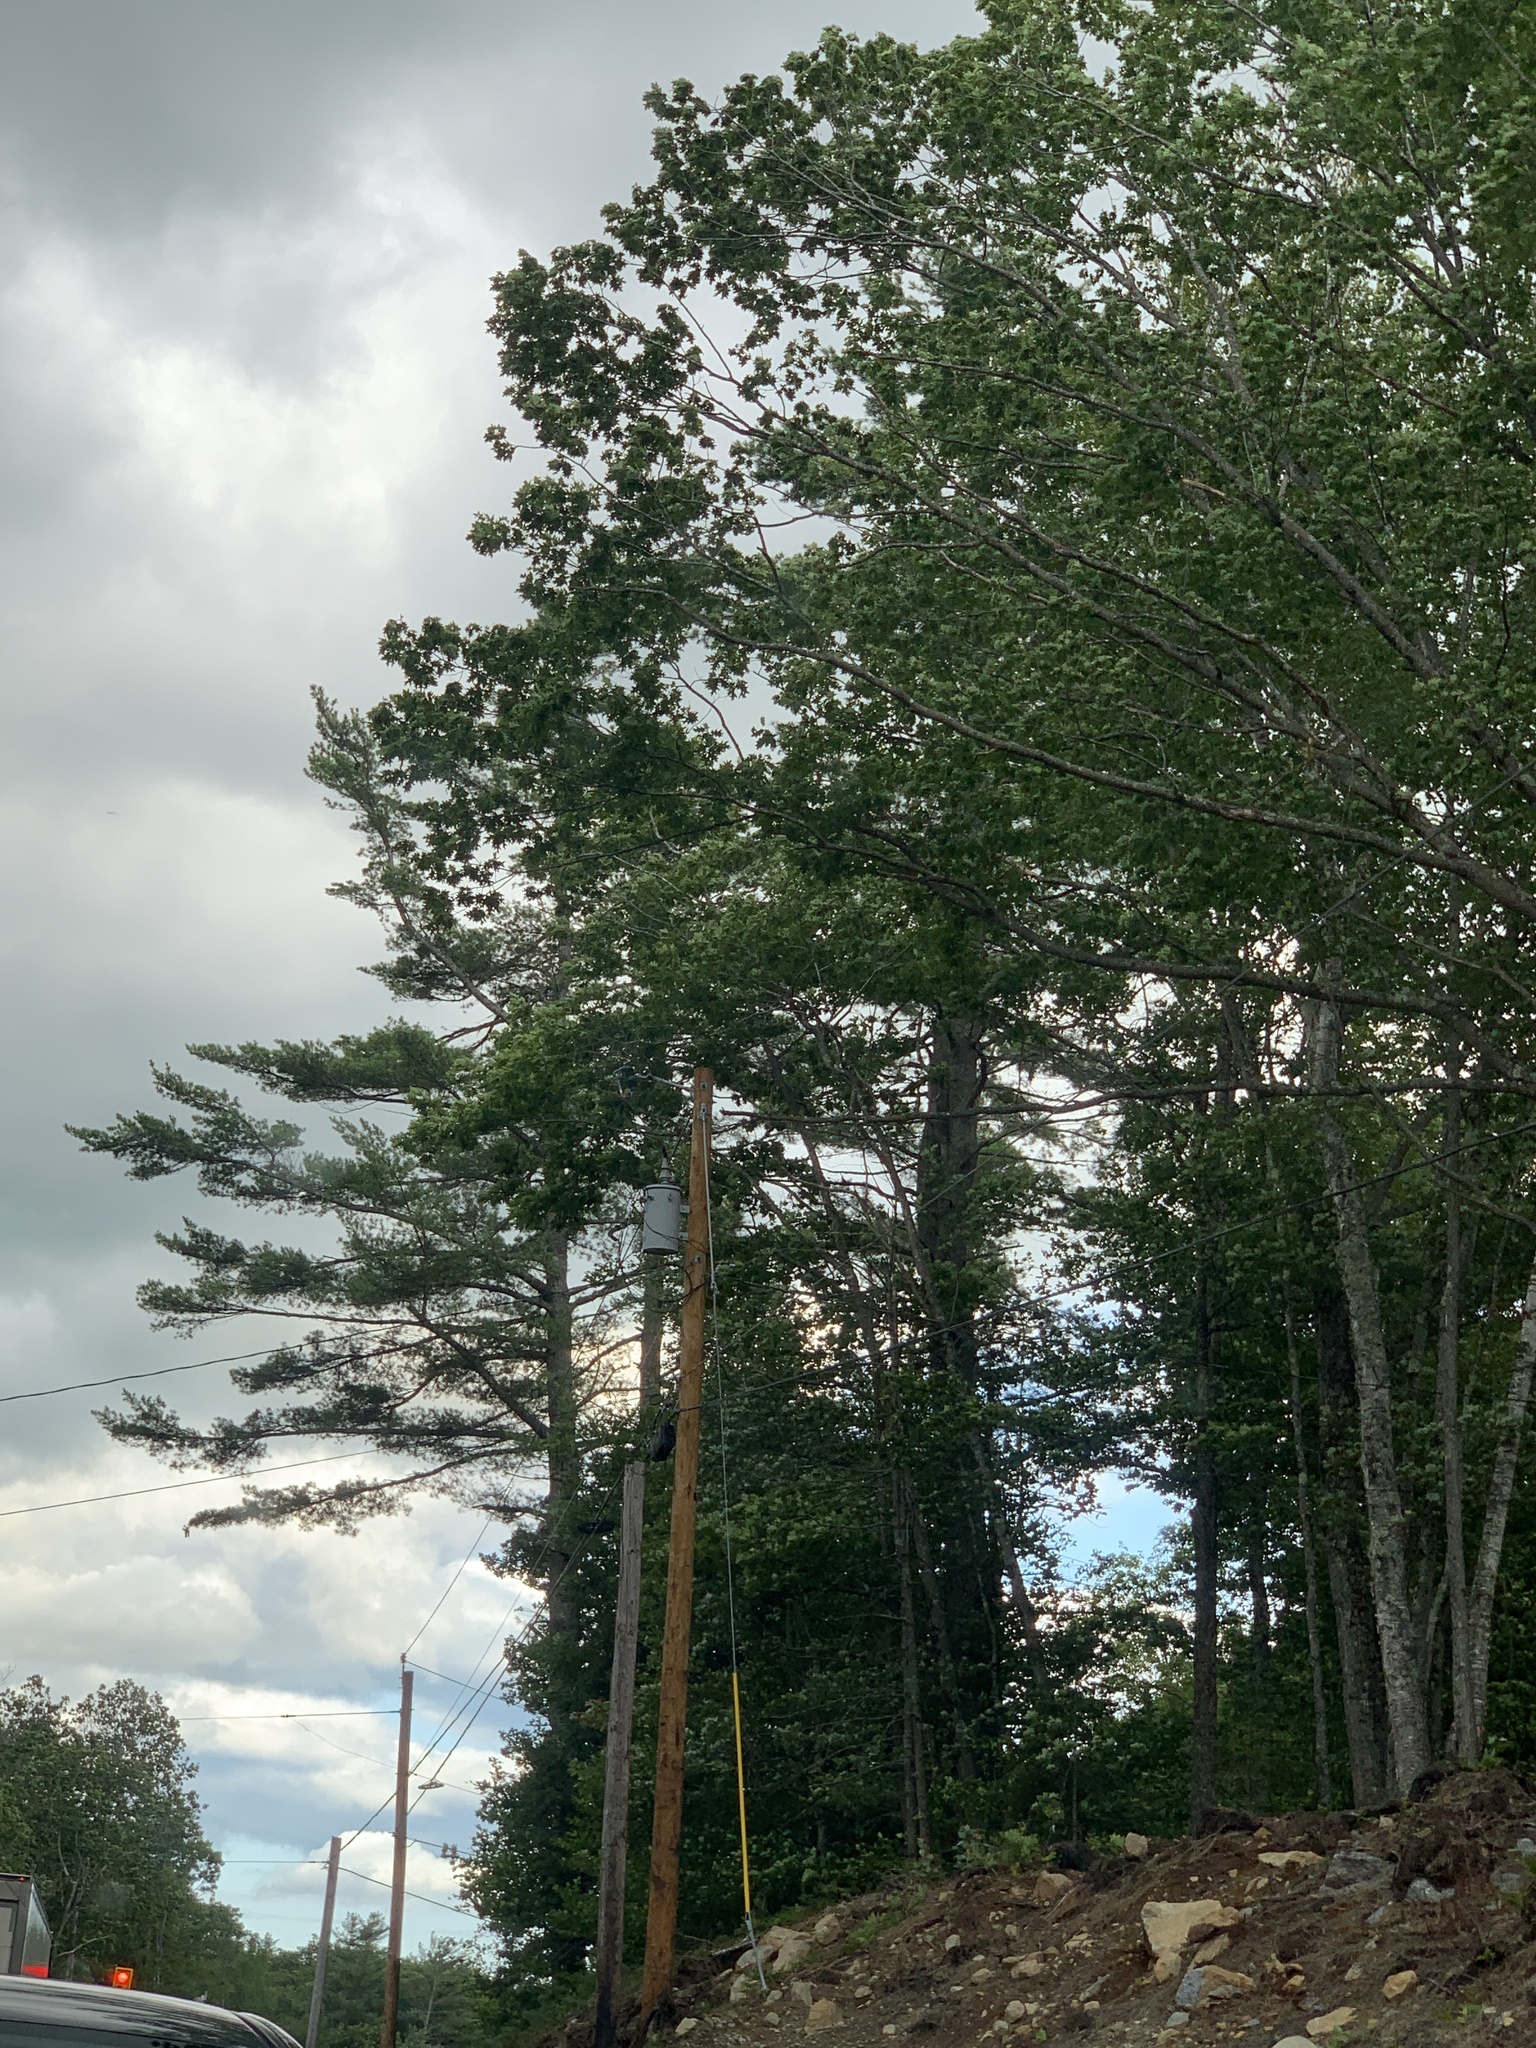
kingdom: Plantae
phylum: Tracheophyta
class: Pinopsida
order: Pinales
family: Pinaceae
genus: Pinus
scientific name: Pinus strobus
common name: Weymouth pine
